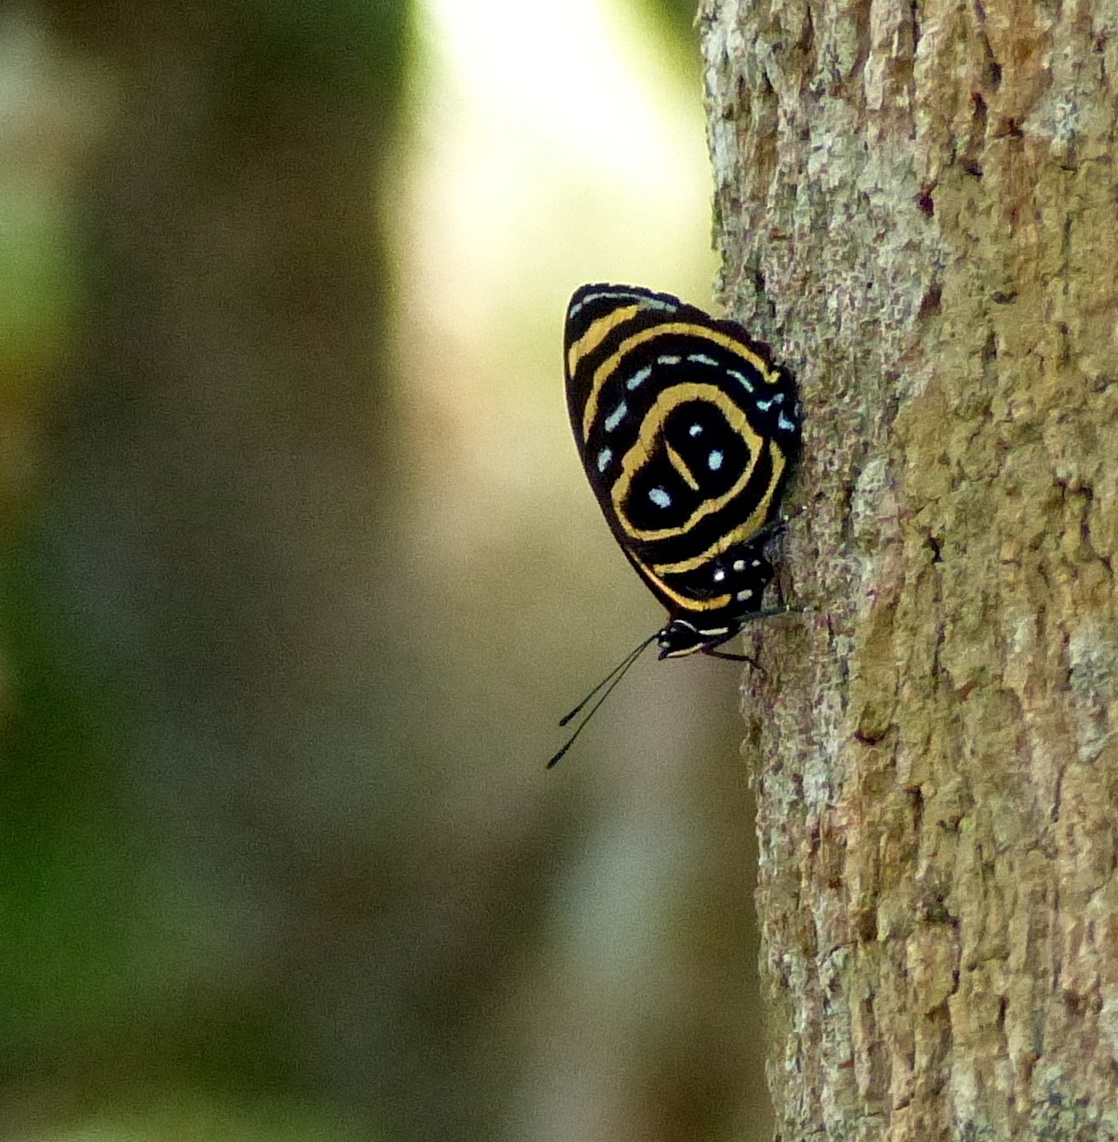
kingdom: Animalia
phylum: Arthropoda
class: Insecta
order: Lepidoptera
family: Nymphalidae
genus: Catagramma
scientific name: Catagramma astarte
